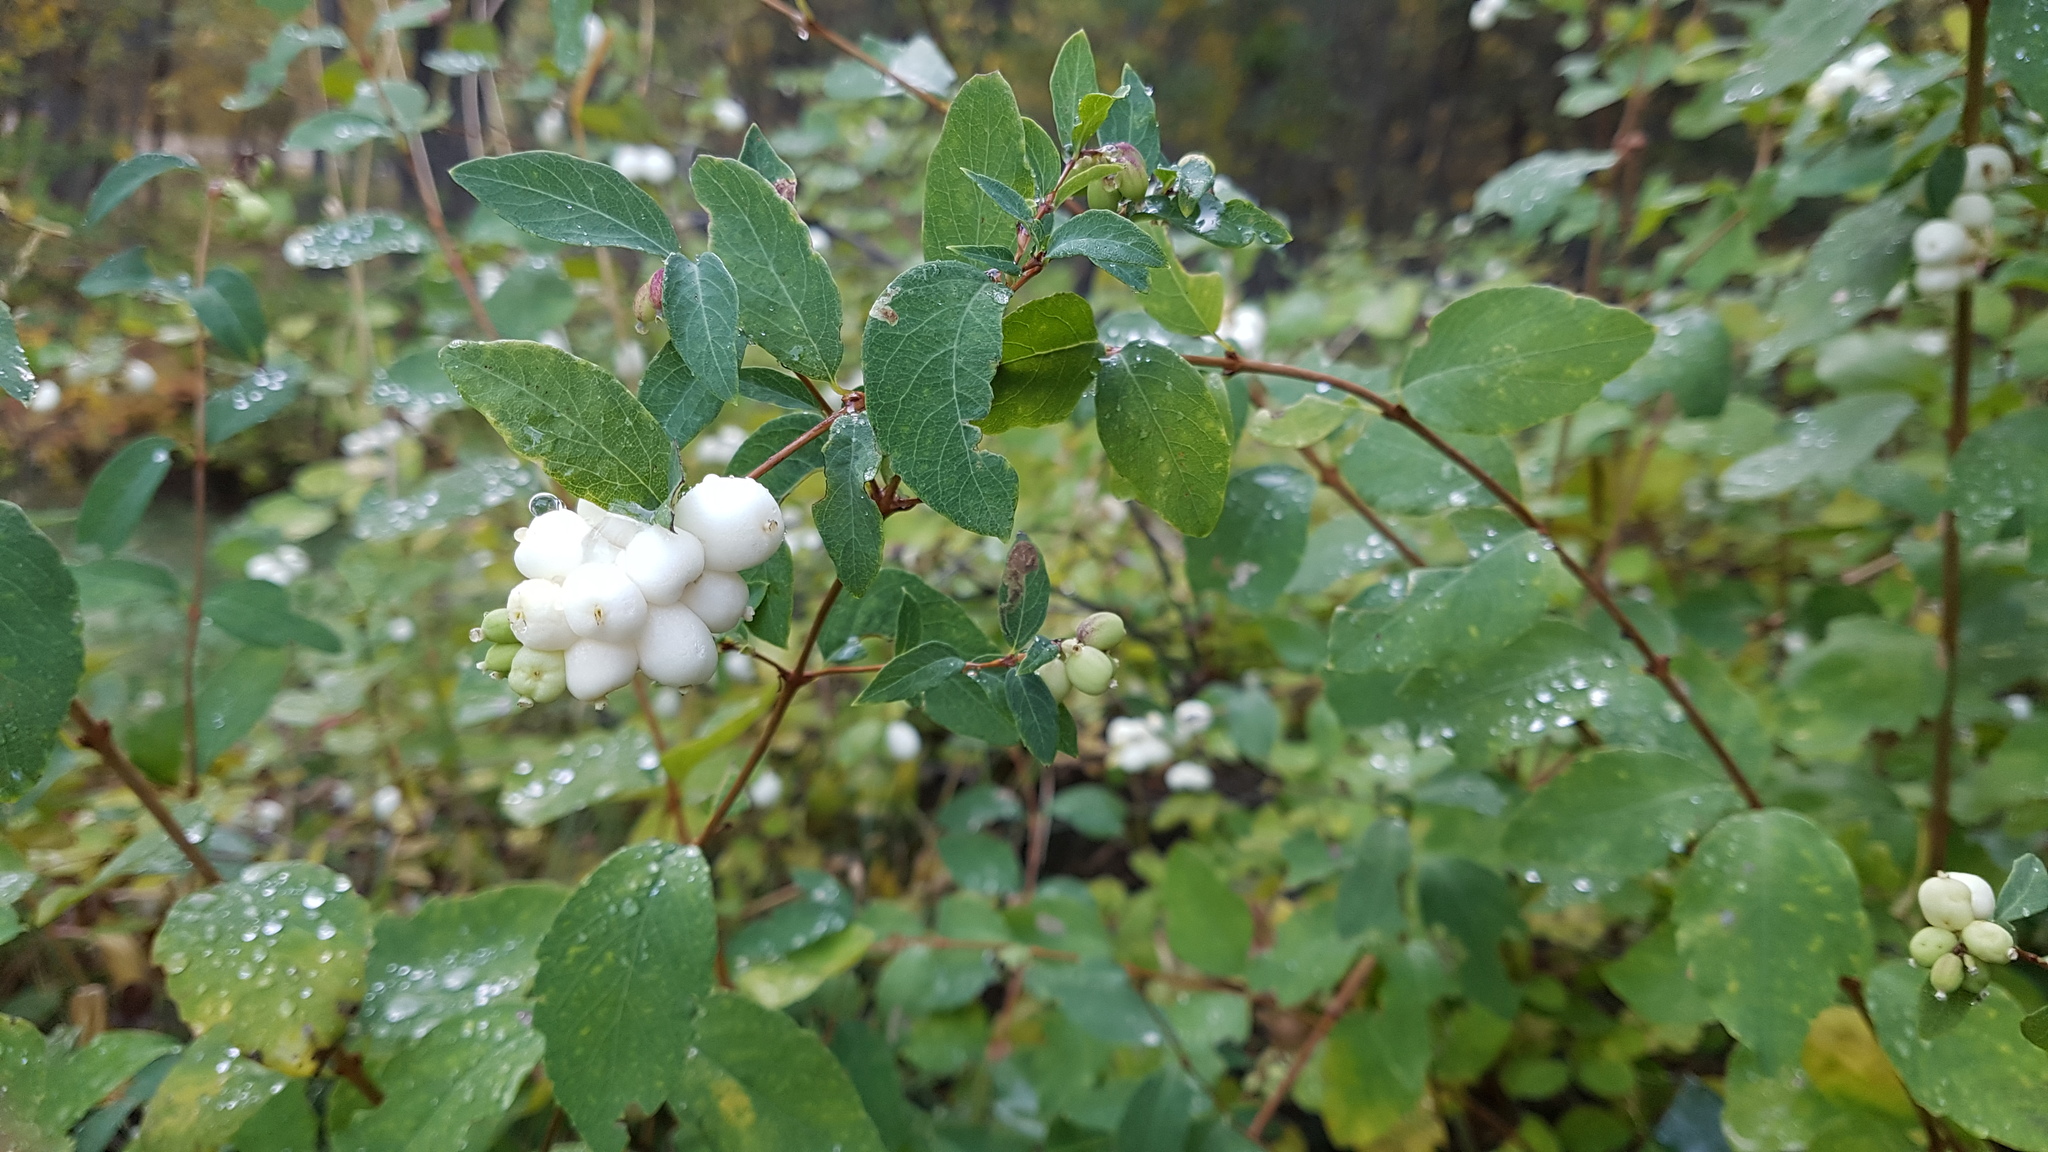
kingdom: Plantae
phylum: Tracheophyta
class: Magnoliopsida
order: Dipsacales
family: Caprifoliaceae
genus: Symphoricarpos
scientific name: Symphoricarpos albus
